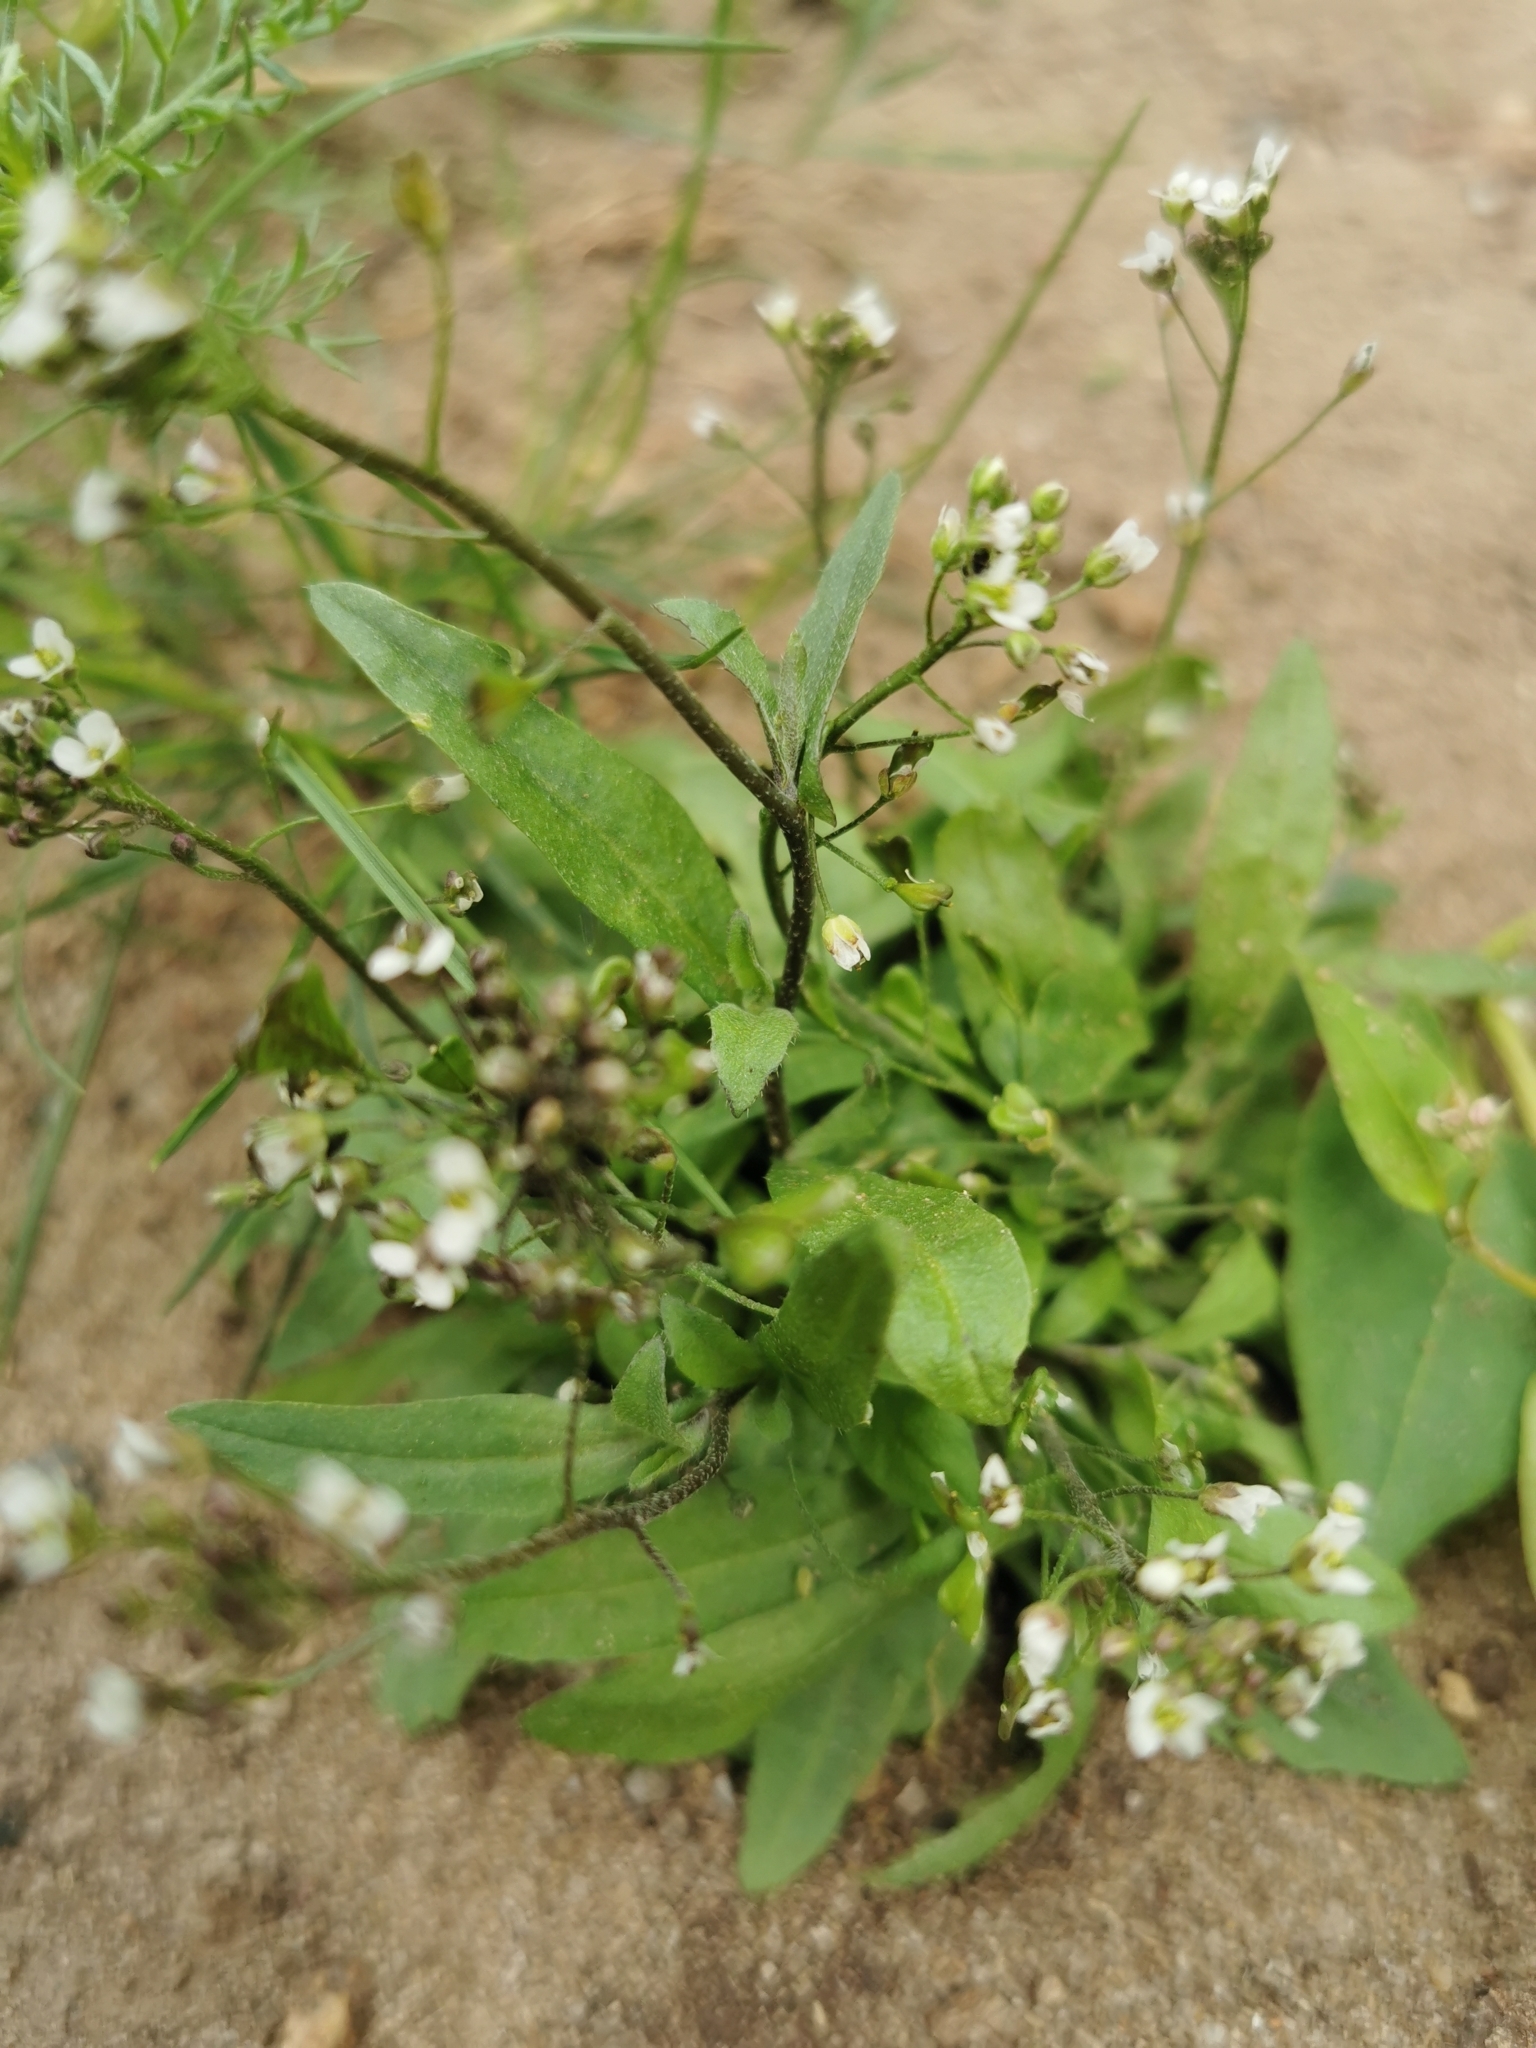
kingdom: Plantae
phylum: Tracheophyta
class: Magnoliopsida
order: Brassicales
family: Brassicaceae
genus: Capsella
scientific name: Capsella bursa-pastoris
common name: Shepherd's purse
